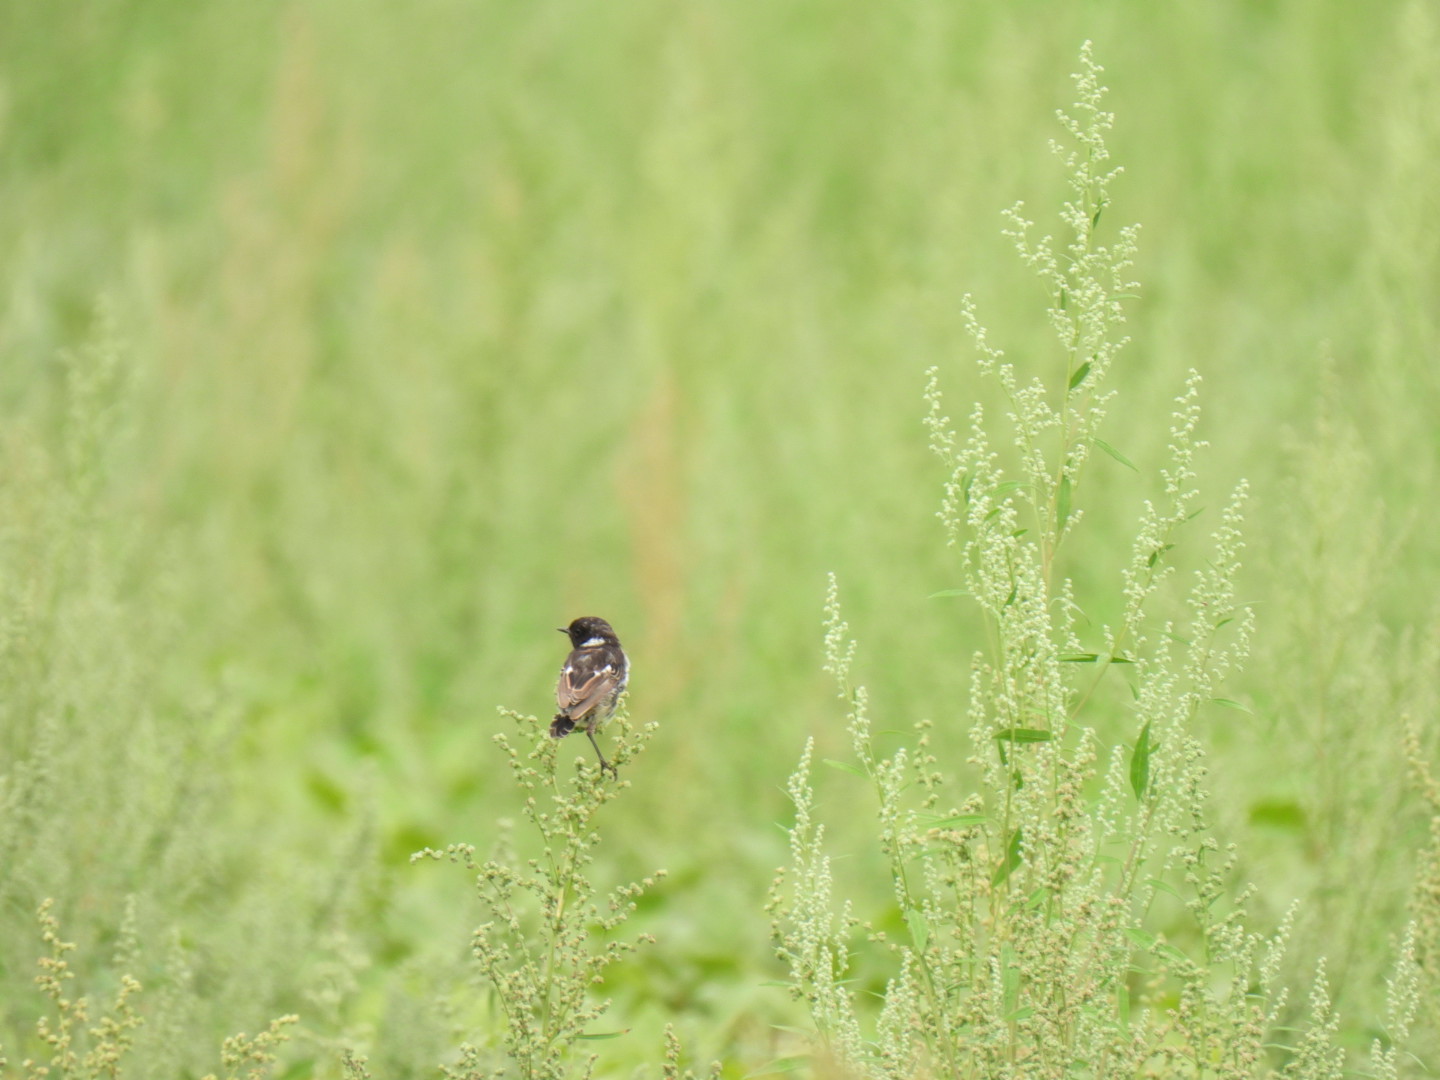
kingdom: Animalia
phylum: Chordata
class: Aves
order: Passeriformes
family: Muscicapidae
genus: Saxicola
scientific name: Saxicola rubicola
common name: European stonechat
